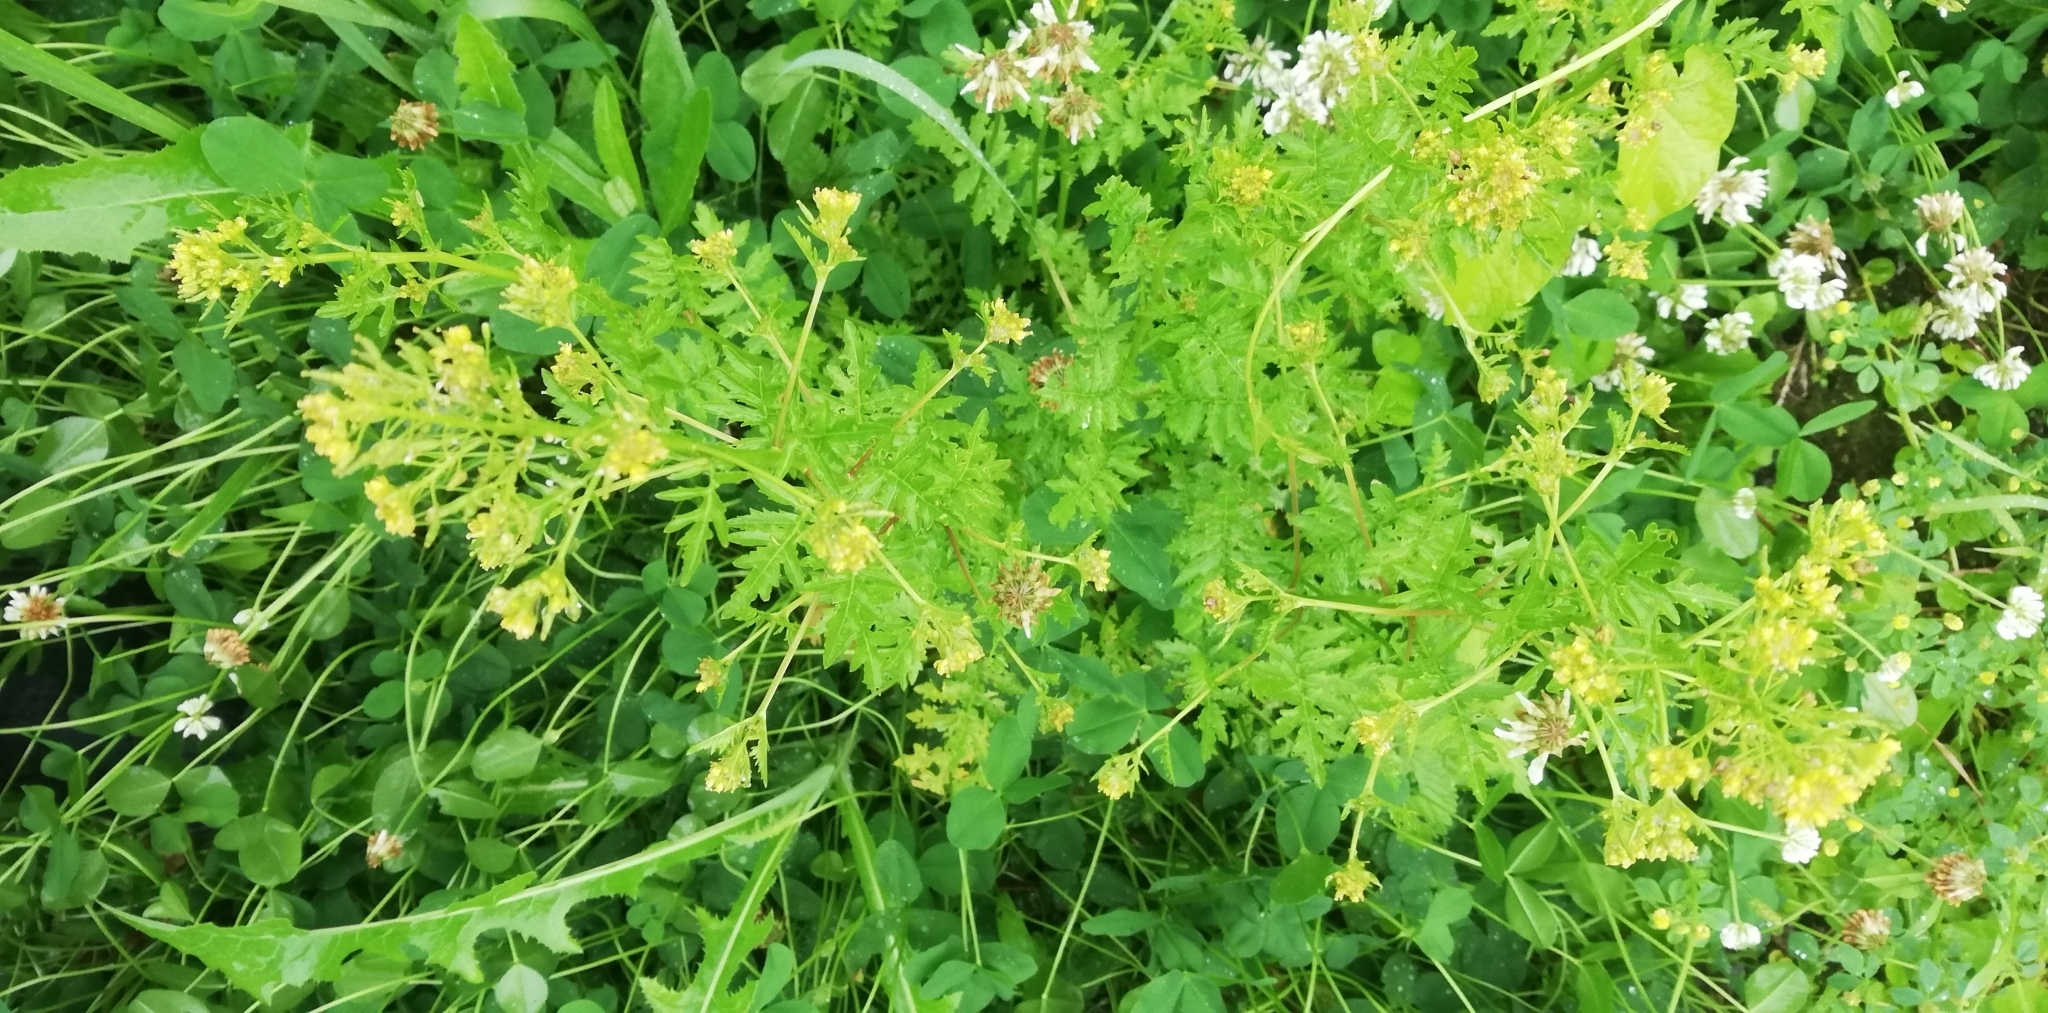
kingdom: Plantae
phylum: Tracheophyta
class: Magnoliopsida
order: Brassicales
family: Brassicaceae
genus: Rorippa
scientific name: Rorippa palustris
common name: Marsh yellow-cress
